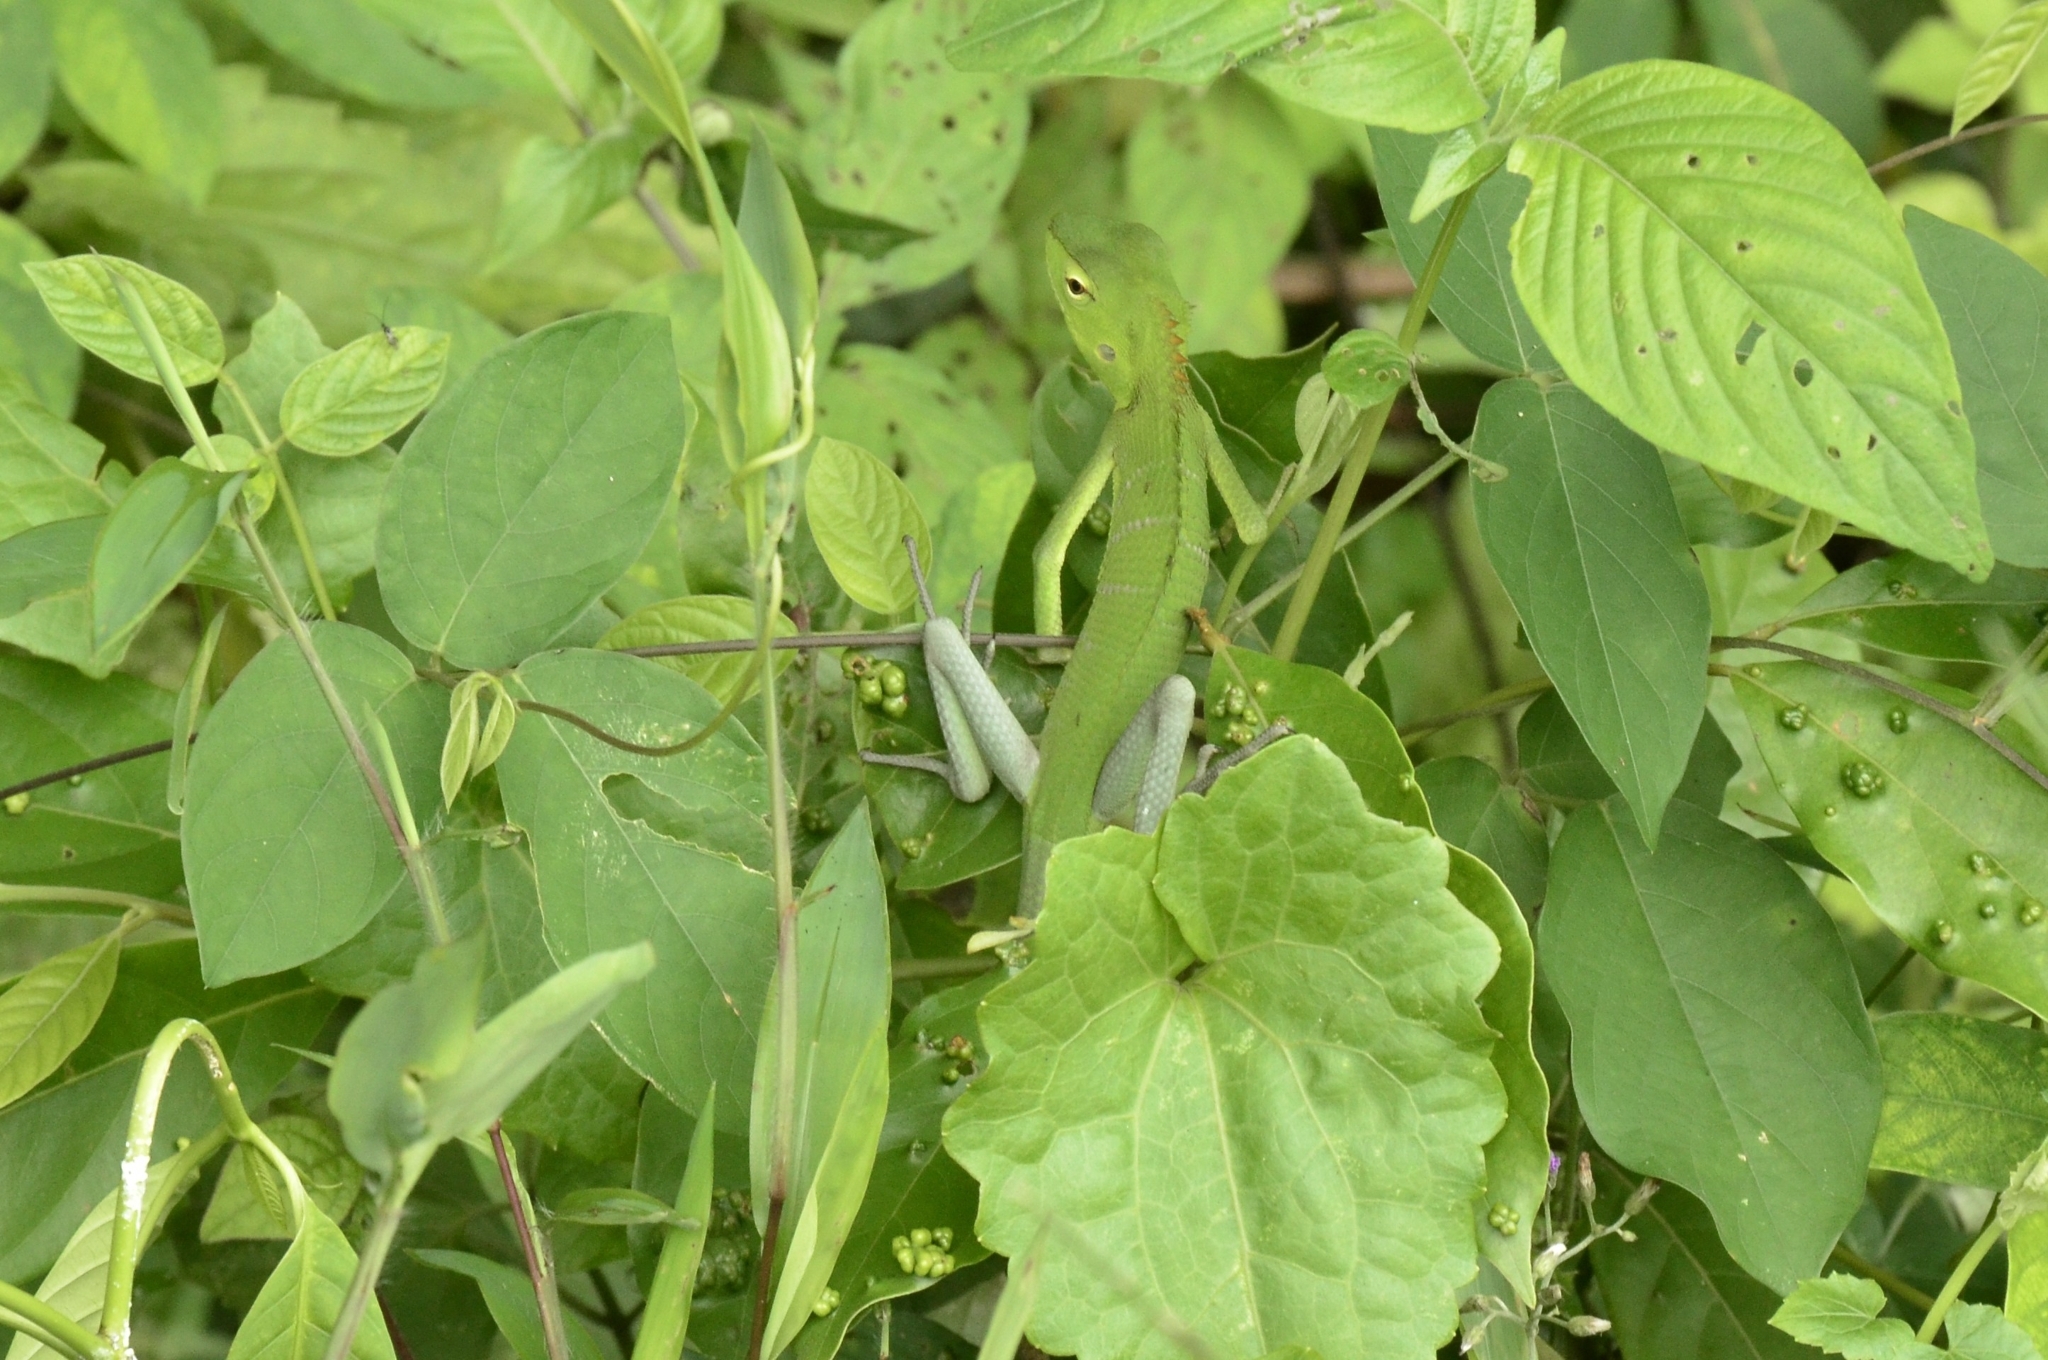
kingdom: Animalia
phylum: Chordata
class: Squamata
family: Agamidae
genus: Calotes
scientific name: Calotes calotes
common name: Common green forest lizard
